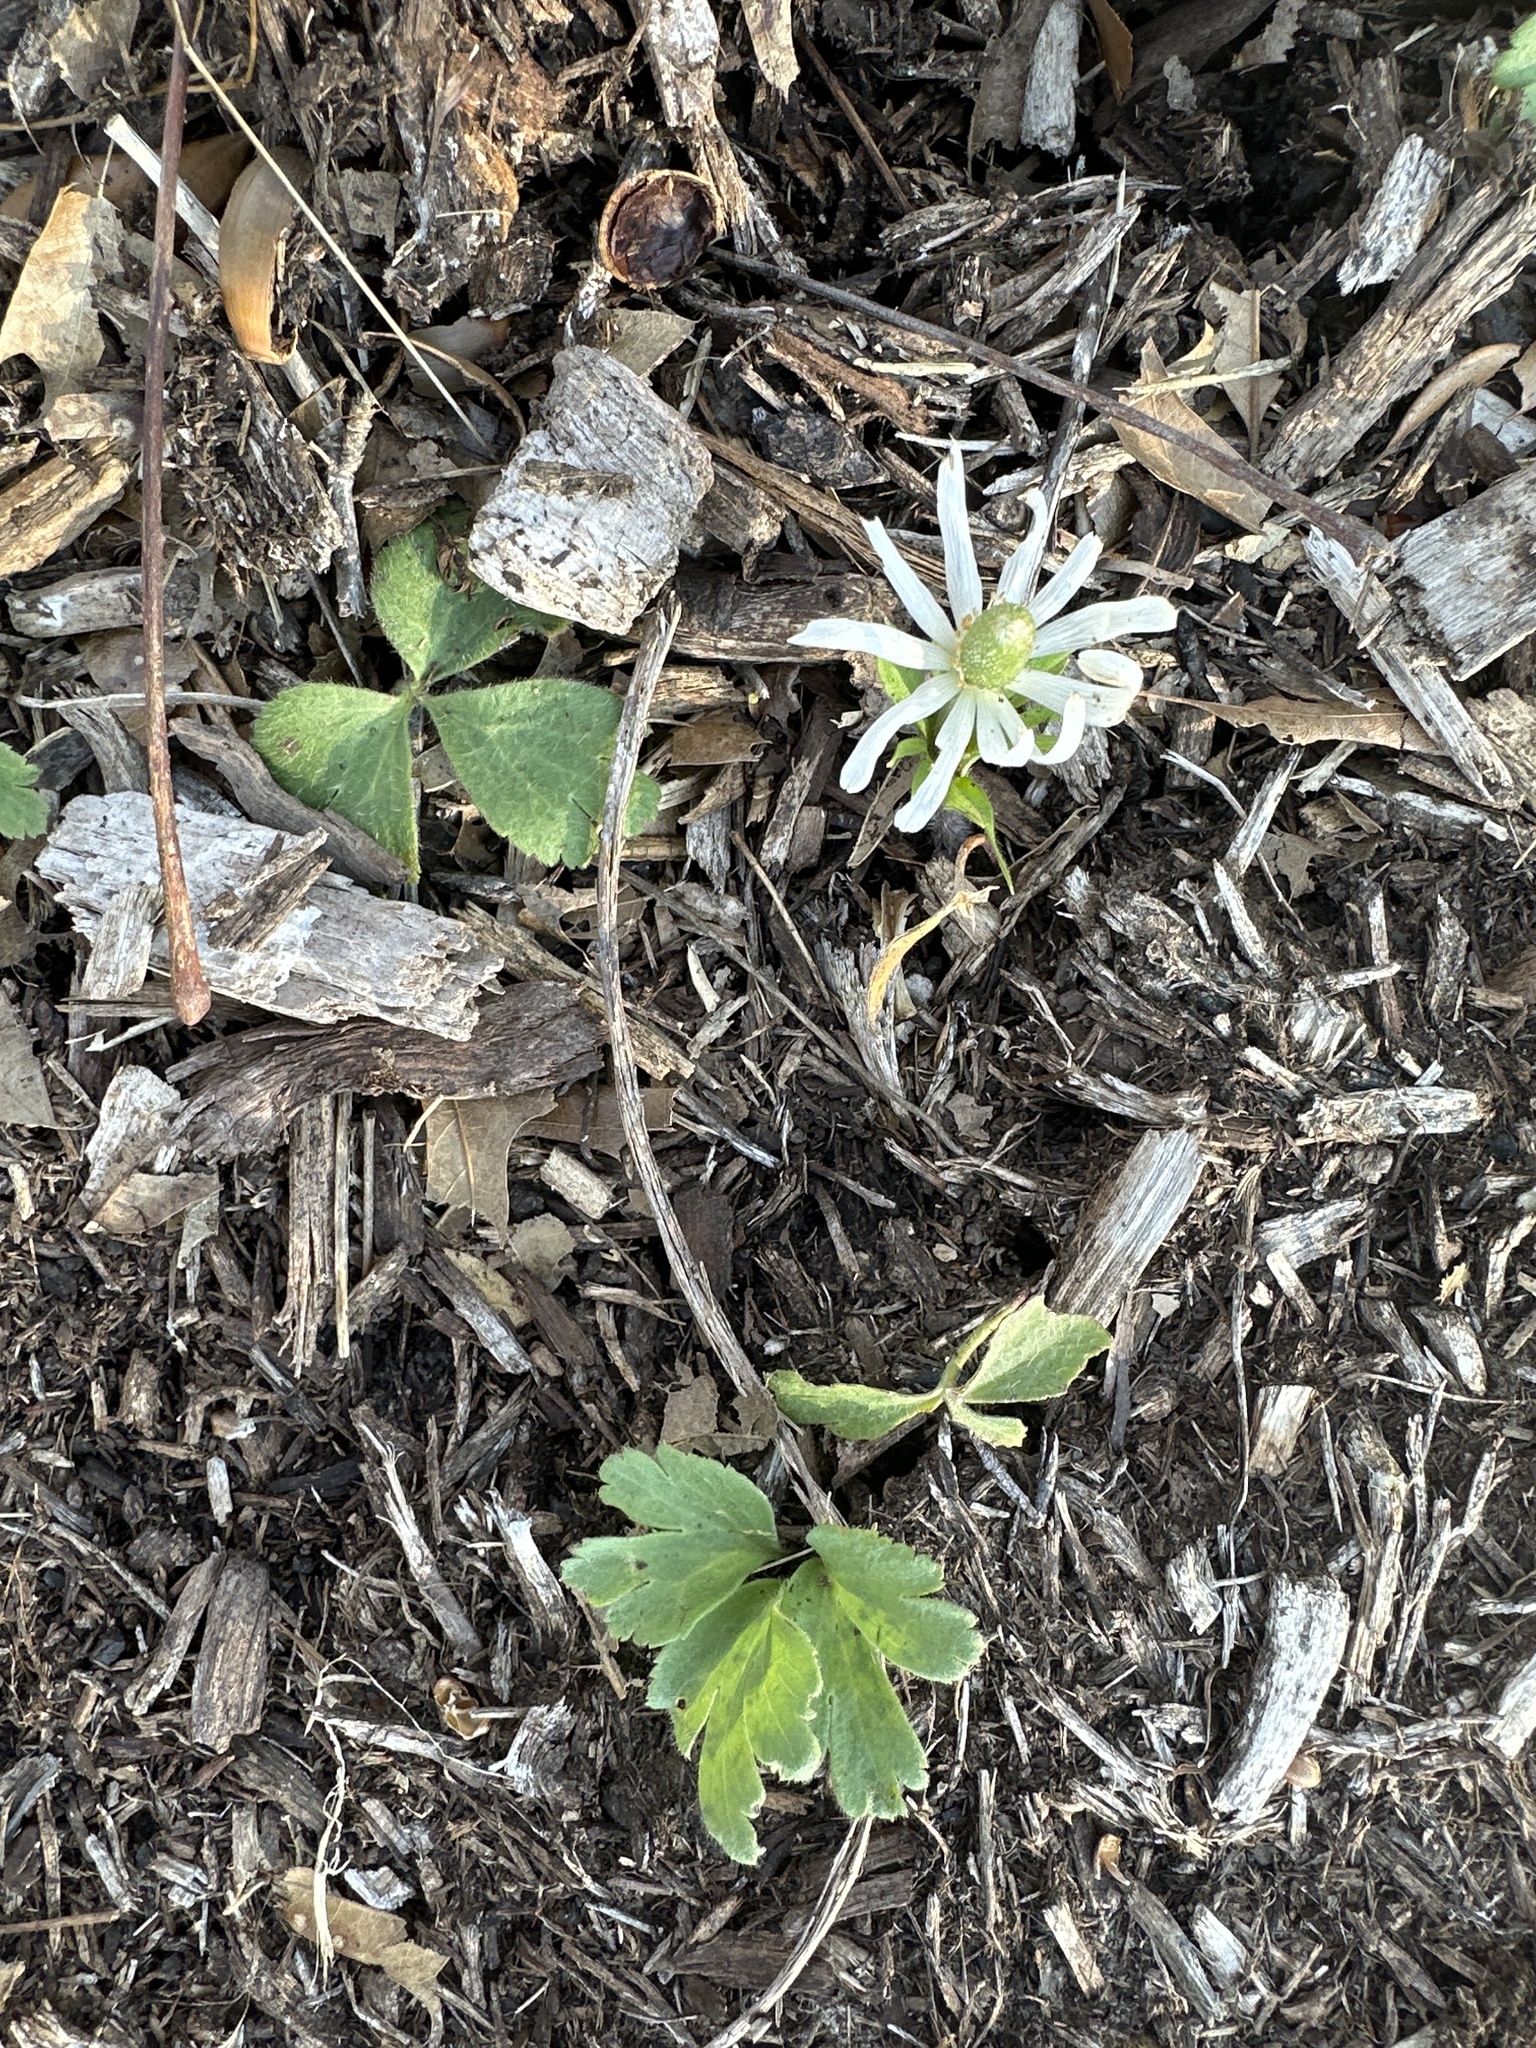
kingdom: Plantae
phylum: Tracheophyta
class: Magnoliopsida
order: Ranunculales
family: Ranunculaceae
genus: Anemone
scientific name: Anemone berlandieri
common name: Ten-petal anemone
